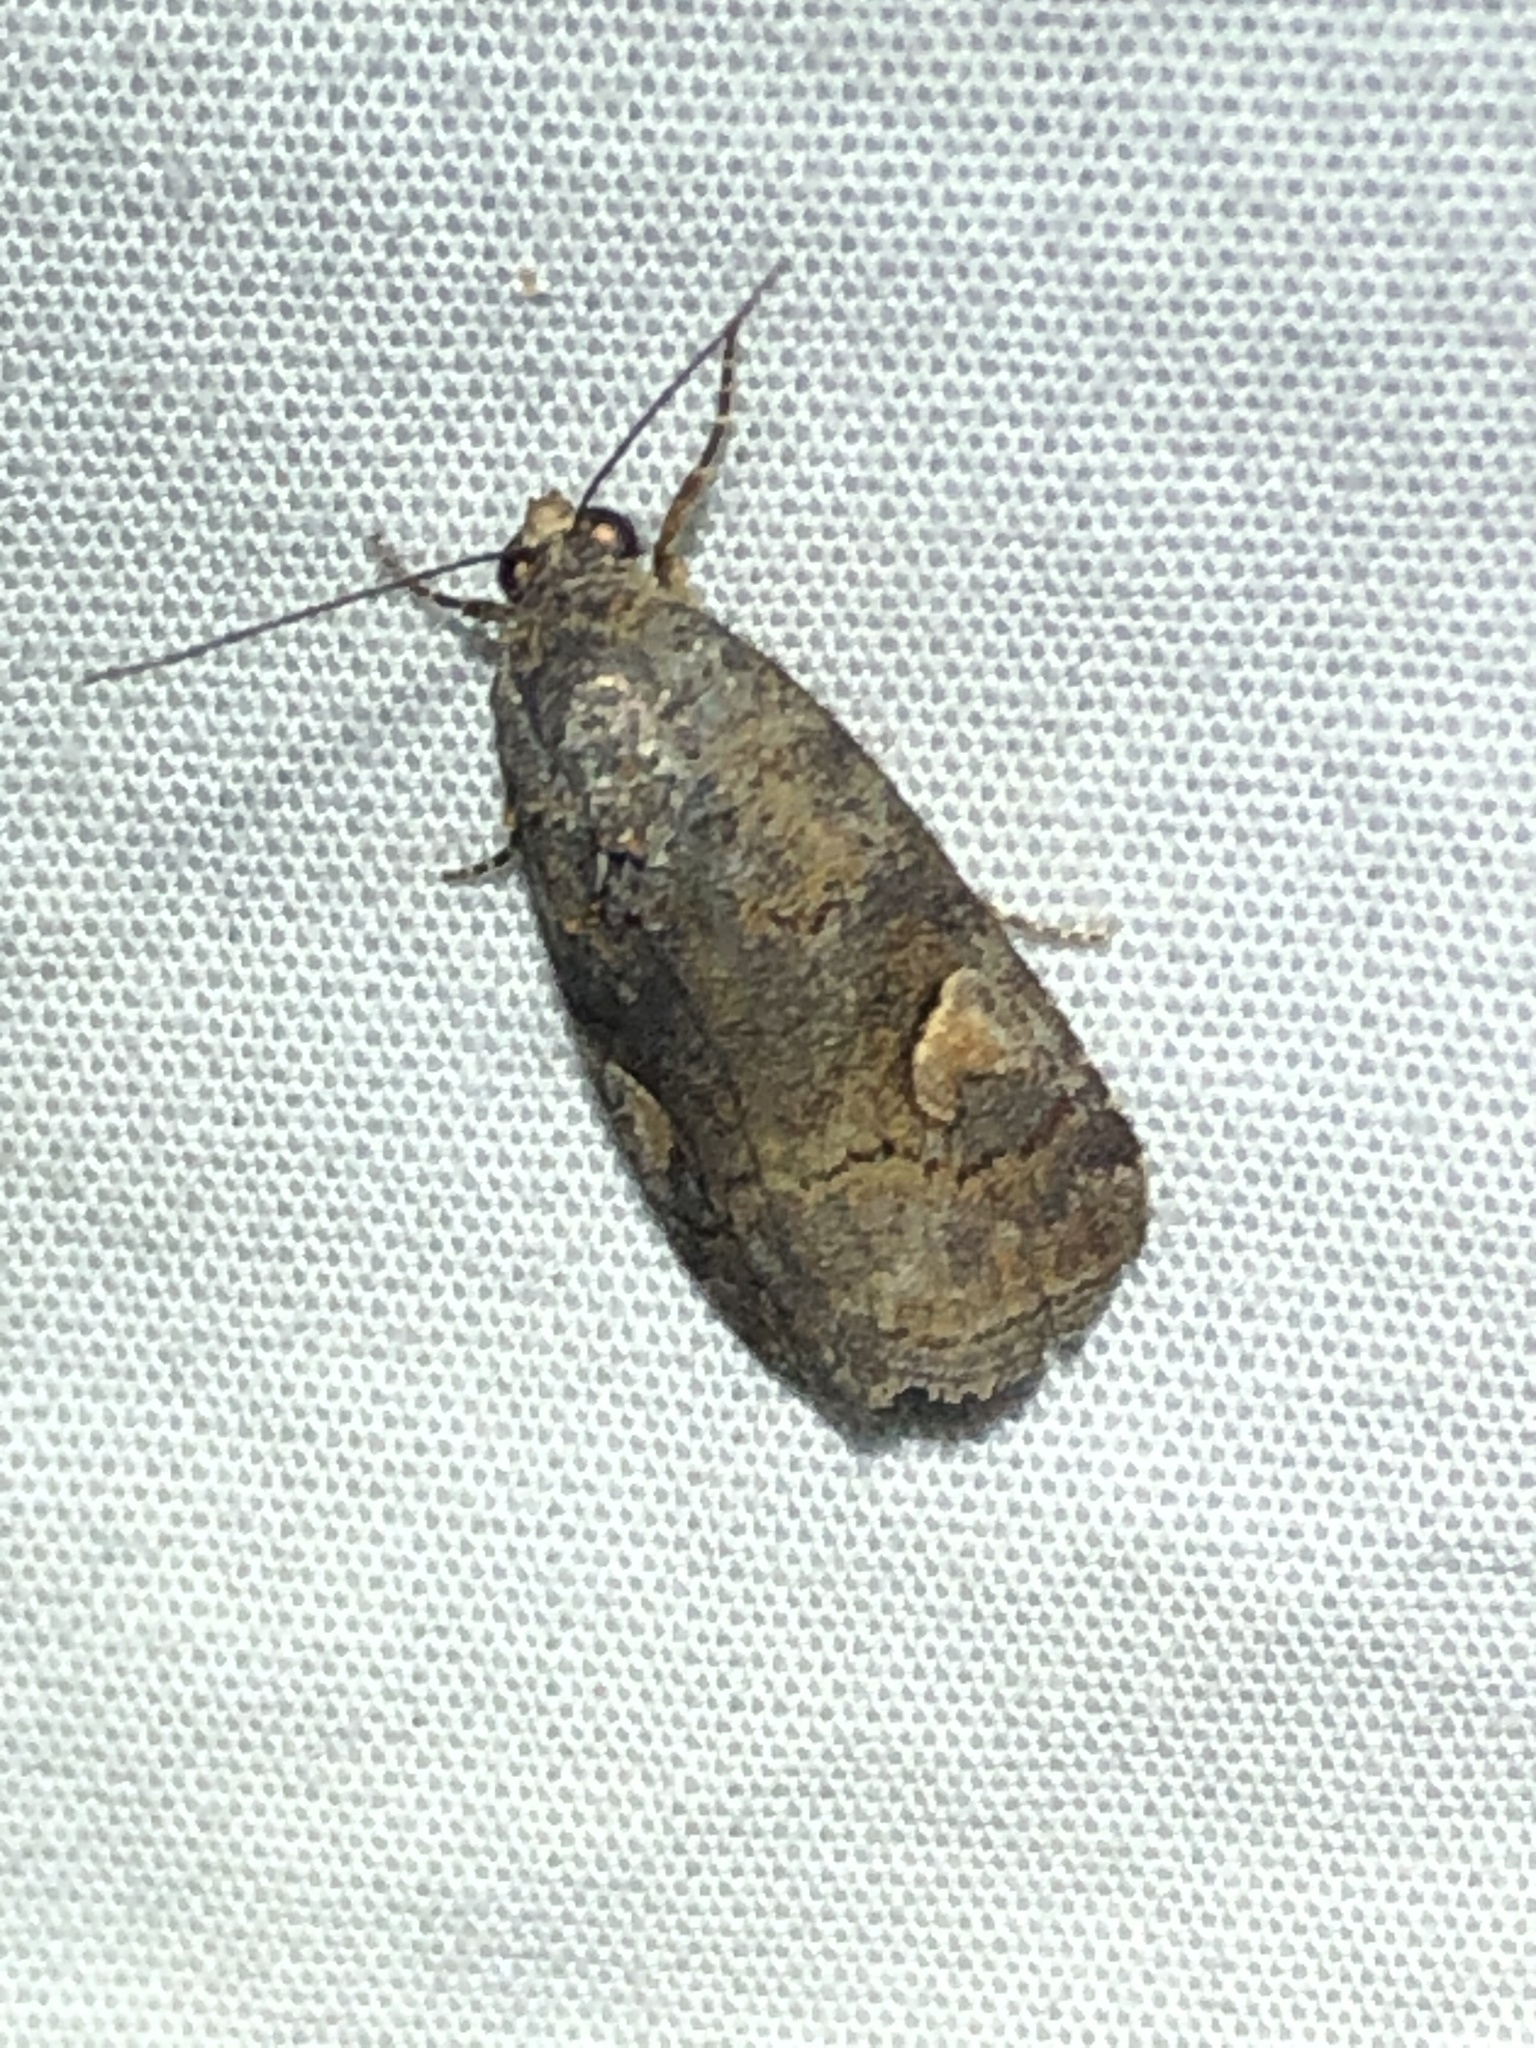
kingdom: Animalia
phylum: Arthropoda
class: Insecta
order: Lepidoptera
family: Noctuidae
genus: Metaponpneumata
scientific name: Metaponpneumata rogenhoferi
